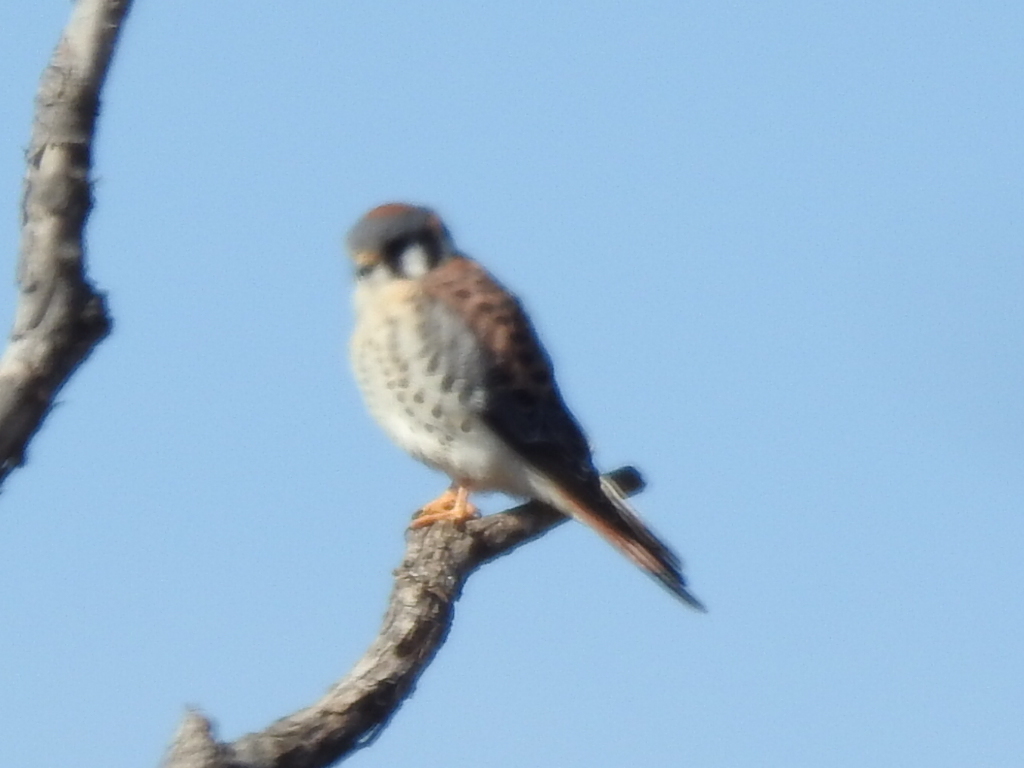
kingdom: Animalia
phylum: Chordata
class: Aves
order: Falconiformes
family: Falconidae
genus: Falco
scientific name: Falco sparverius
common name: American kestrel
